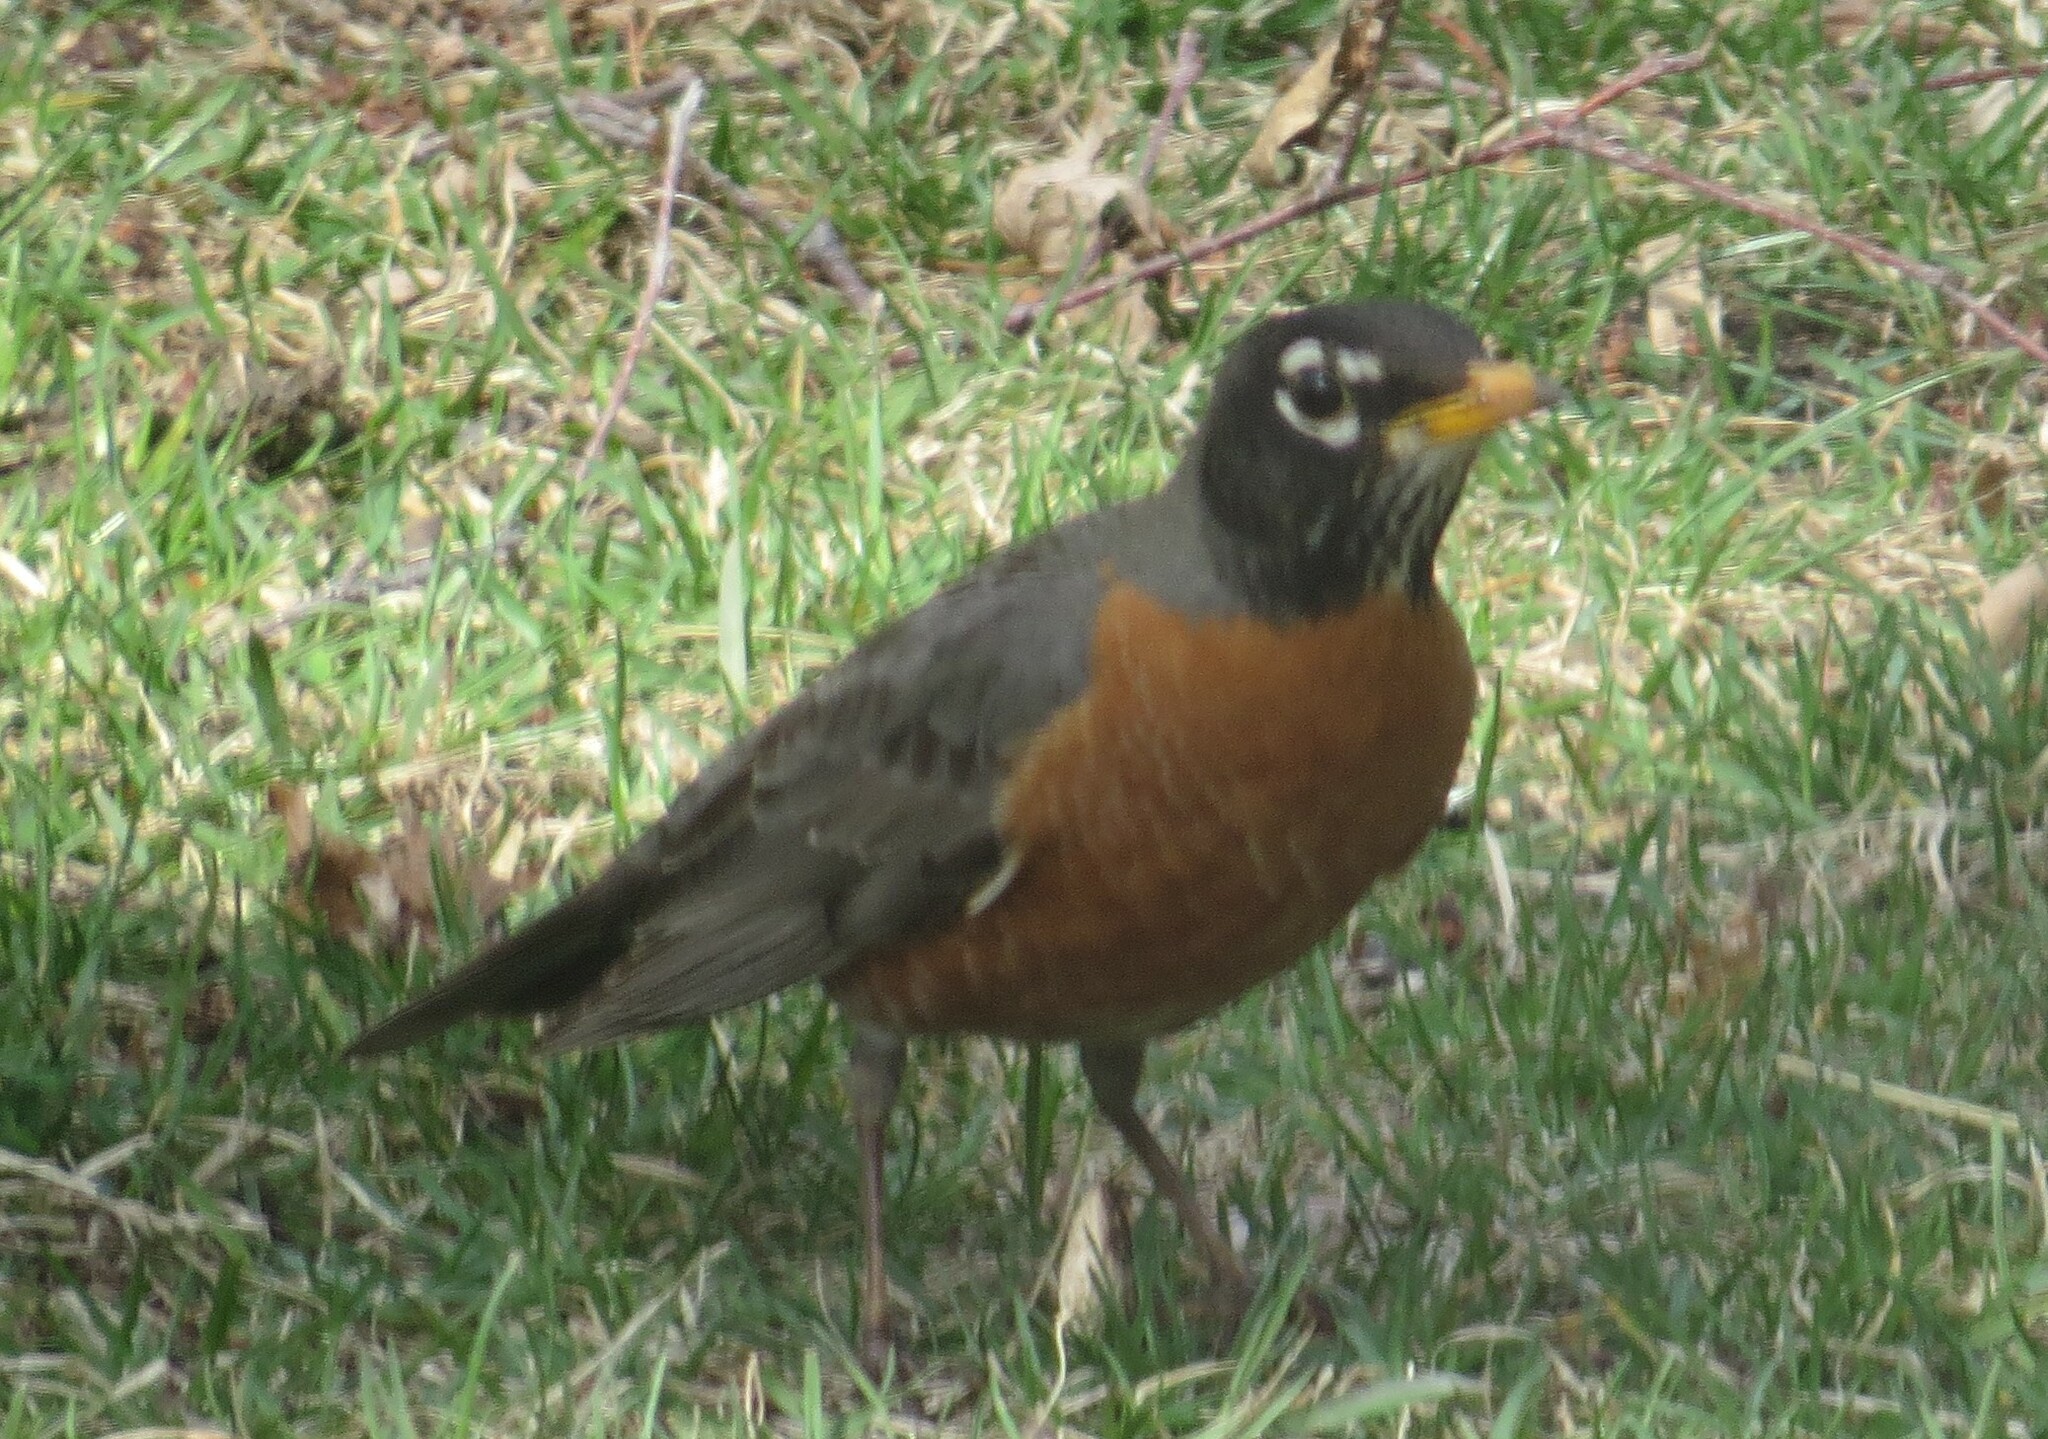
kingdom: Animalia
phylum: Chordata
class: Aves
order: Passeriformes
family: Turdidae
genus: Turdus
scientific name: Turdus migratorius
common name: American robin
